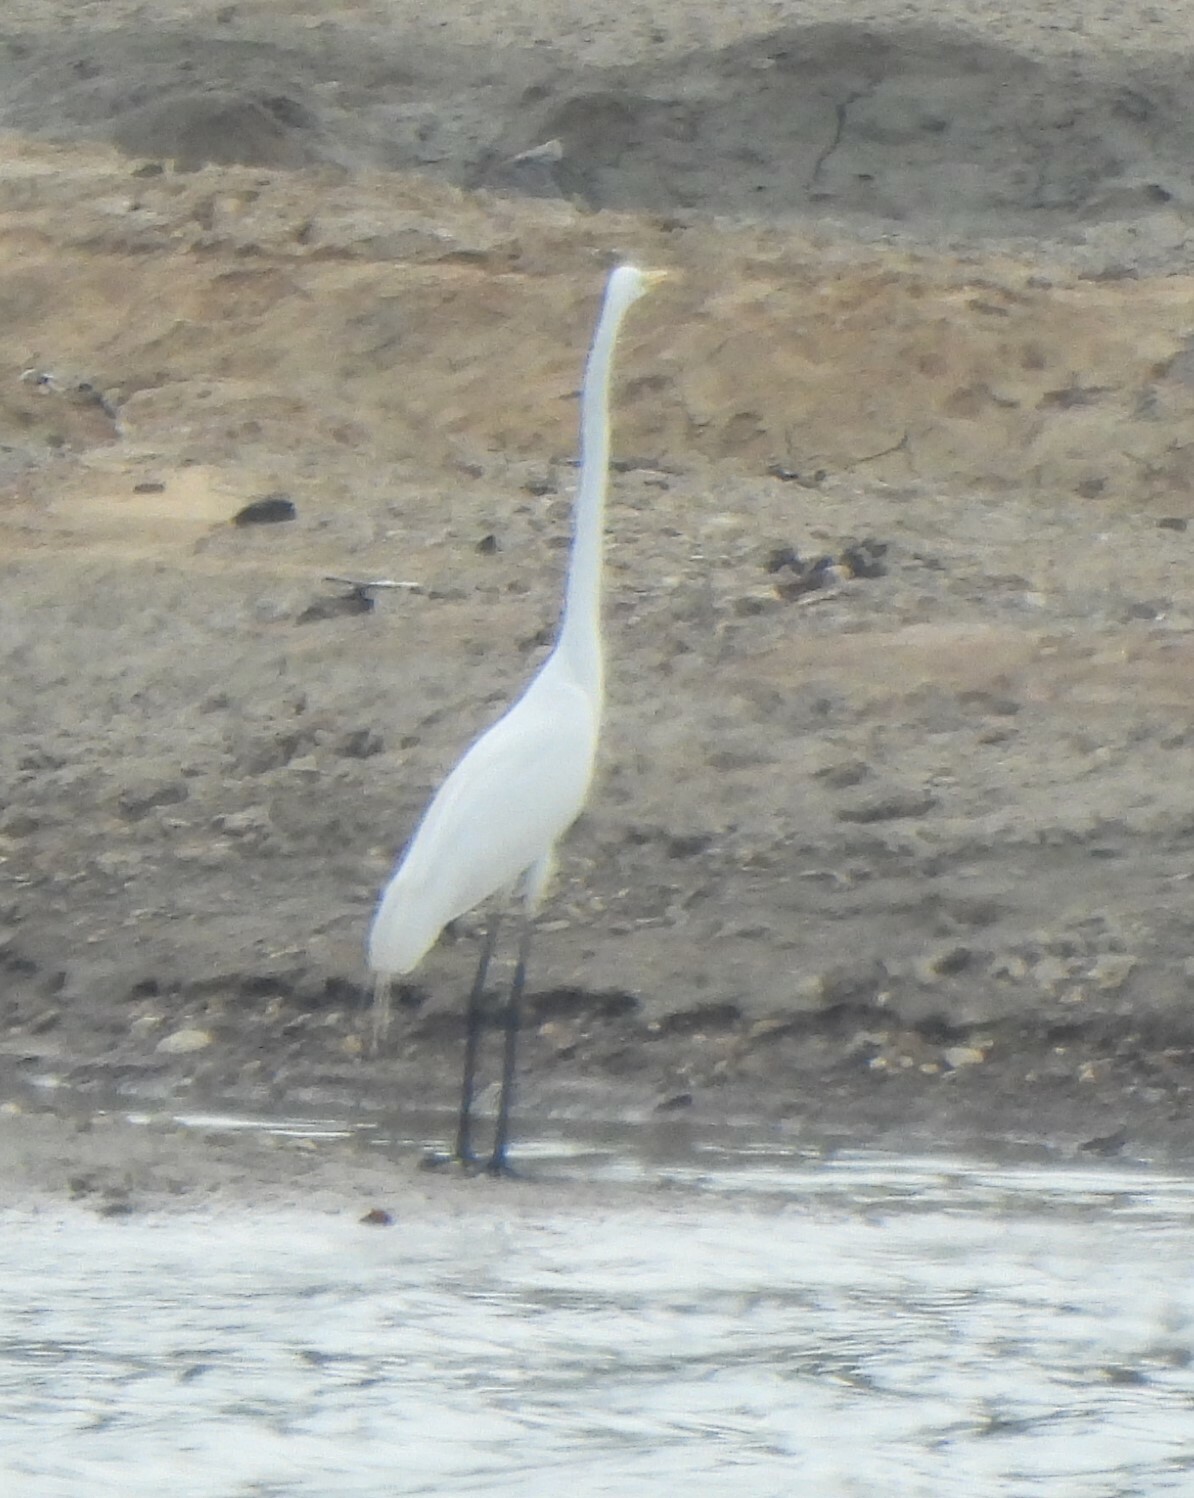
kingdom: Animalia
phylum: Chordata
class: Aves
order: Pelecaniformes
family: Ardeidae
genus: Ardea
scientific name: Ardea alba
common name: Great egret
